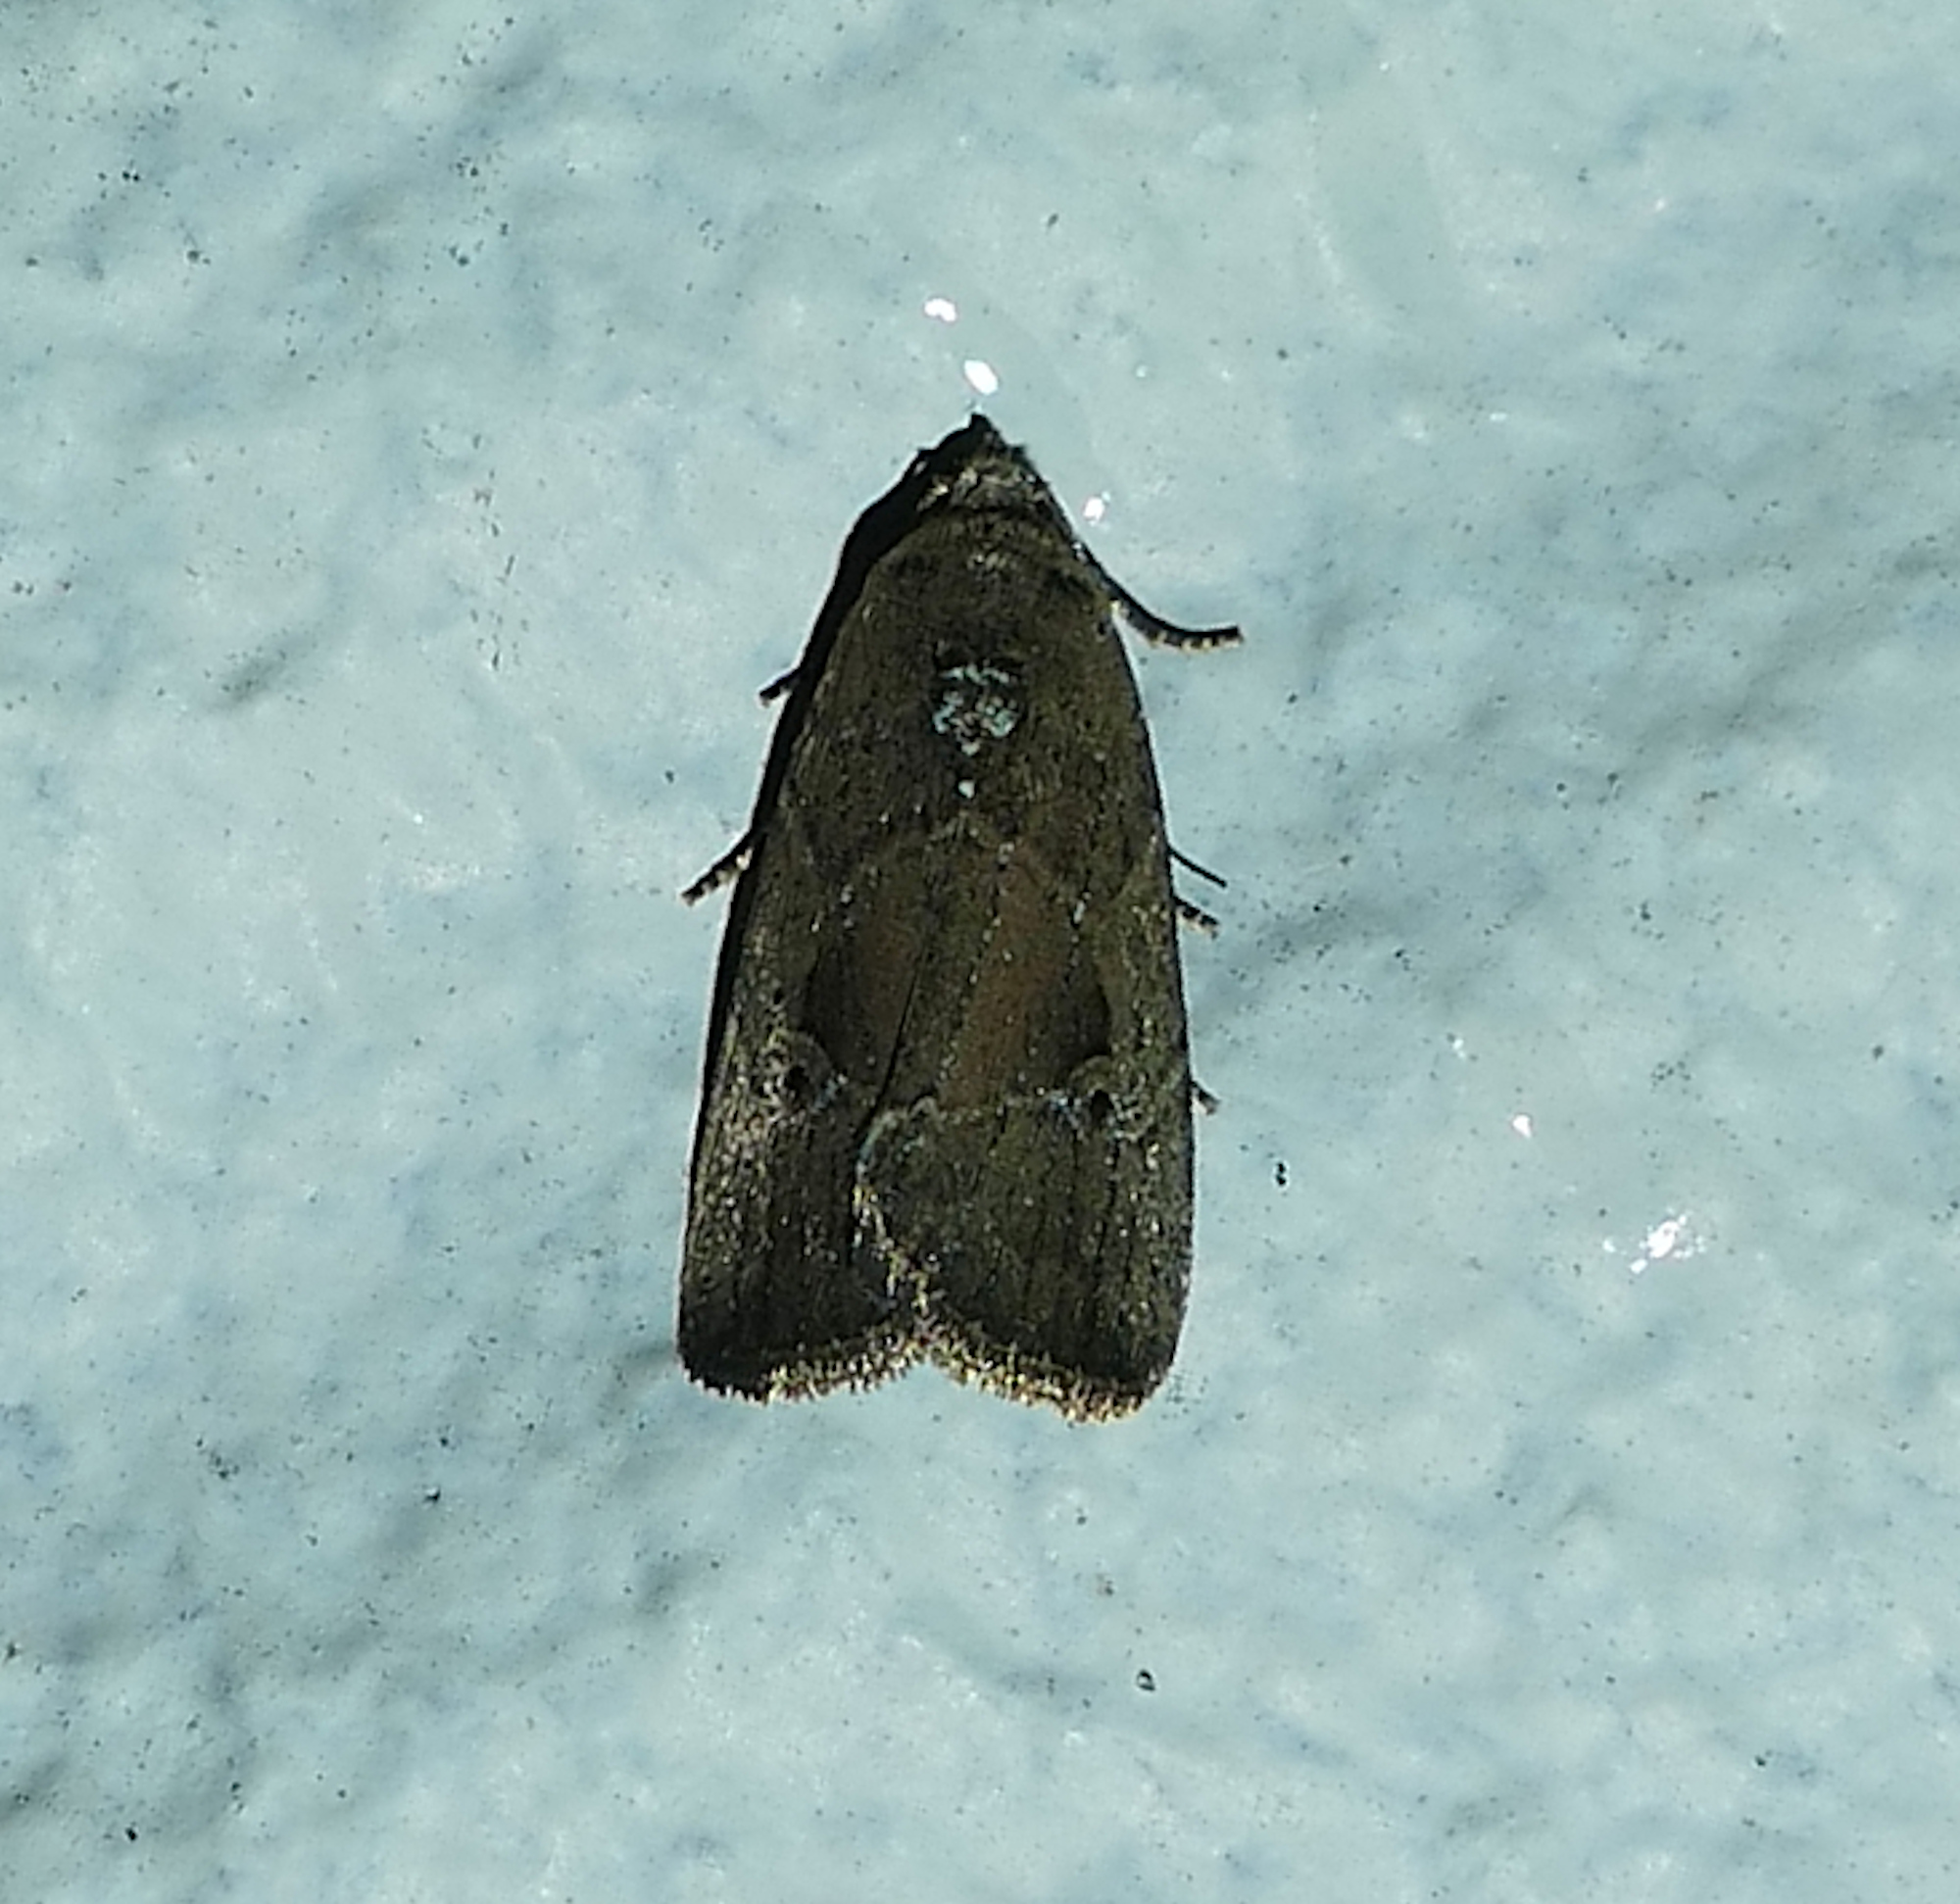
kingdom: Animalia
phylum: Arthropoda
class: Insecta
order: Lepidoptera
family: Noctuidae
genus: Elaphria
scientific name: Elaphria nucicolora
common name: Sugarcane midget moth
